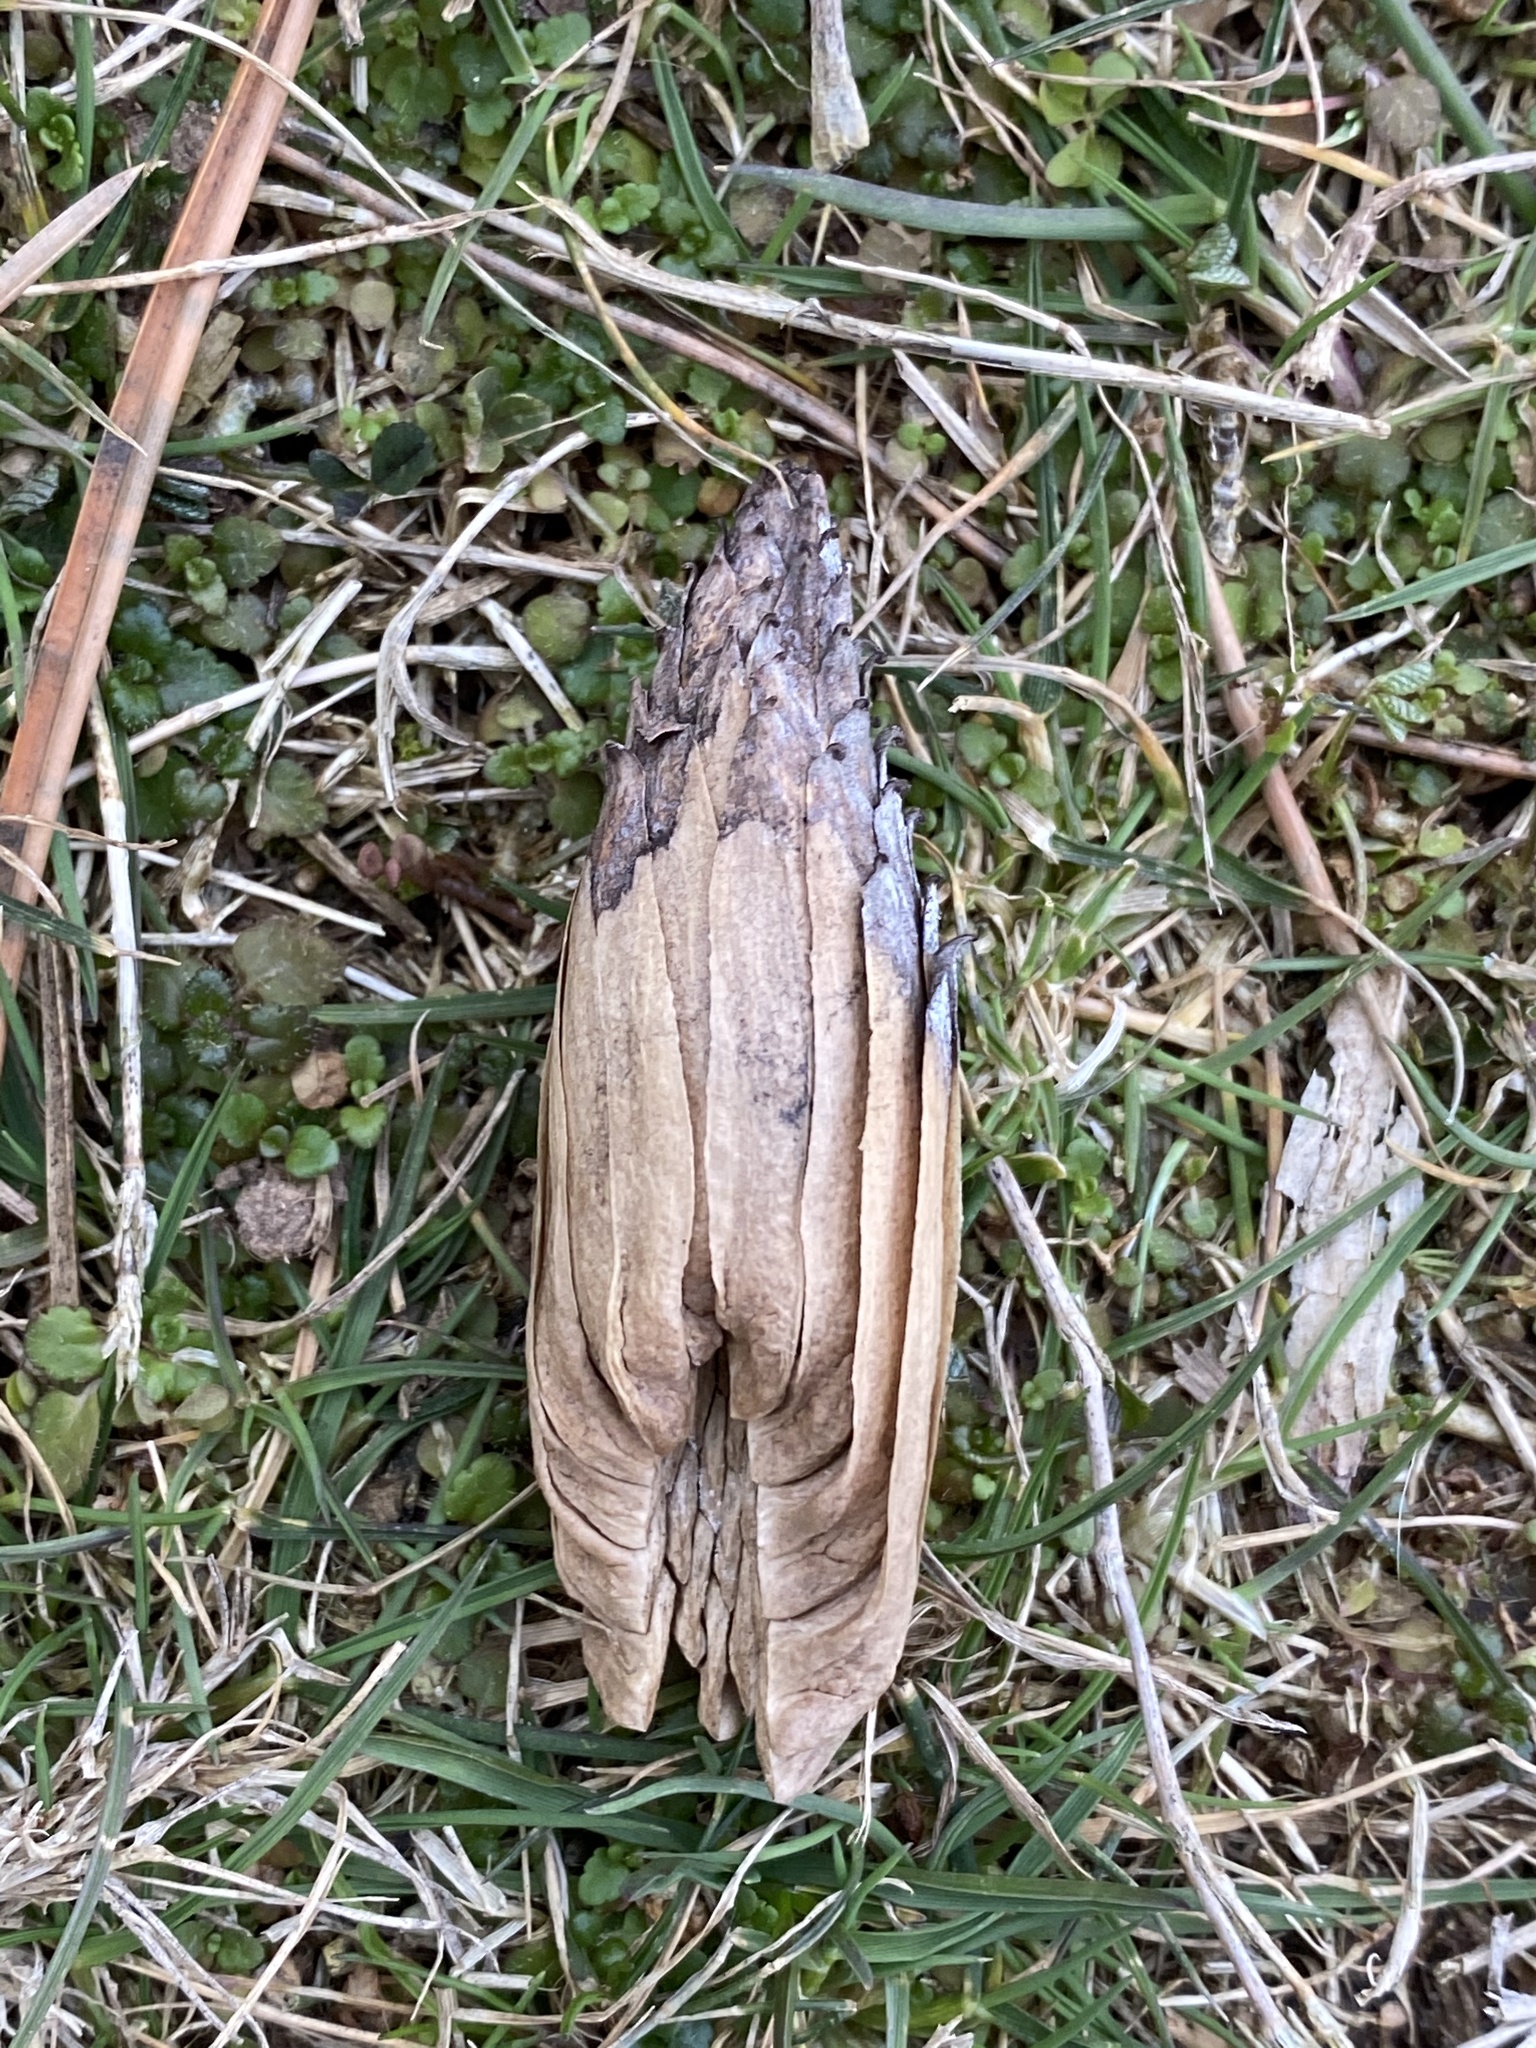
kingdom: Plantae
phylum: Tracheophyta
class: Magnoliopsida
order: Magnoliales
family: Magnoliaceae
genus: Liriodendron
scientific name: Liriodendron tulipifera
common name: Tulip tree
